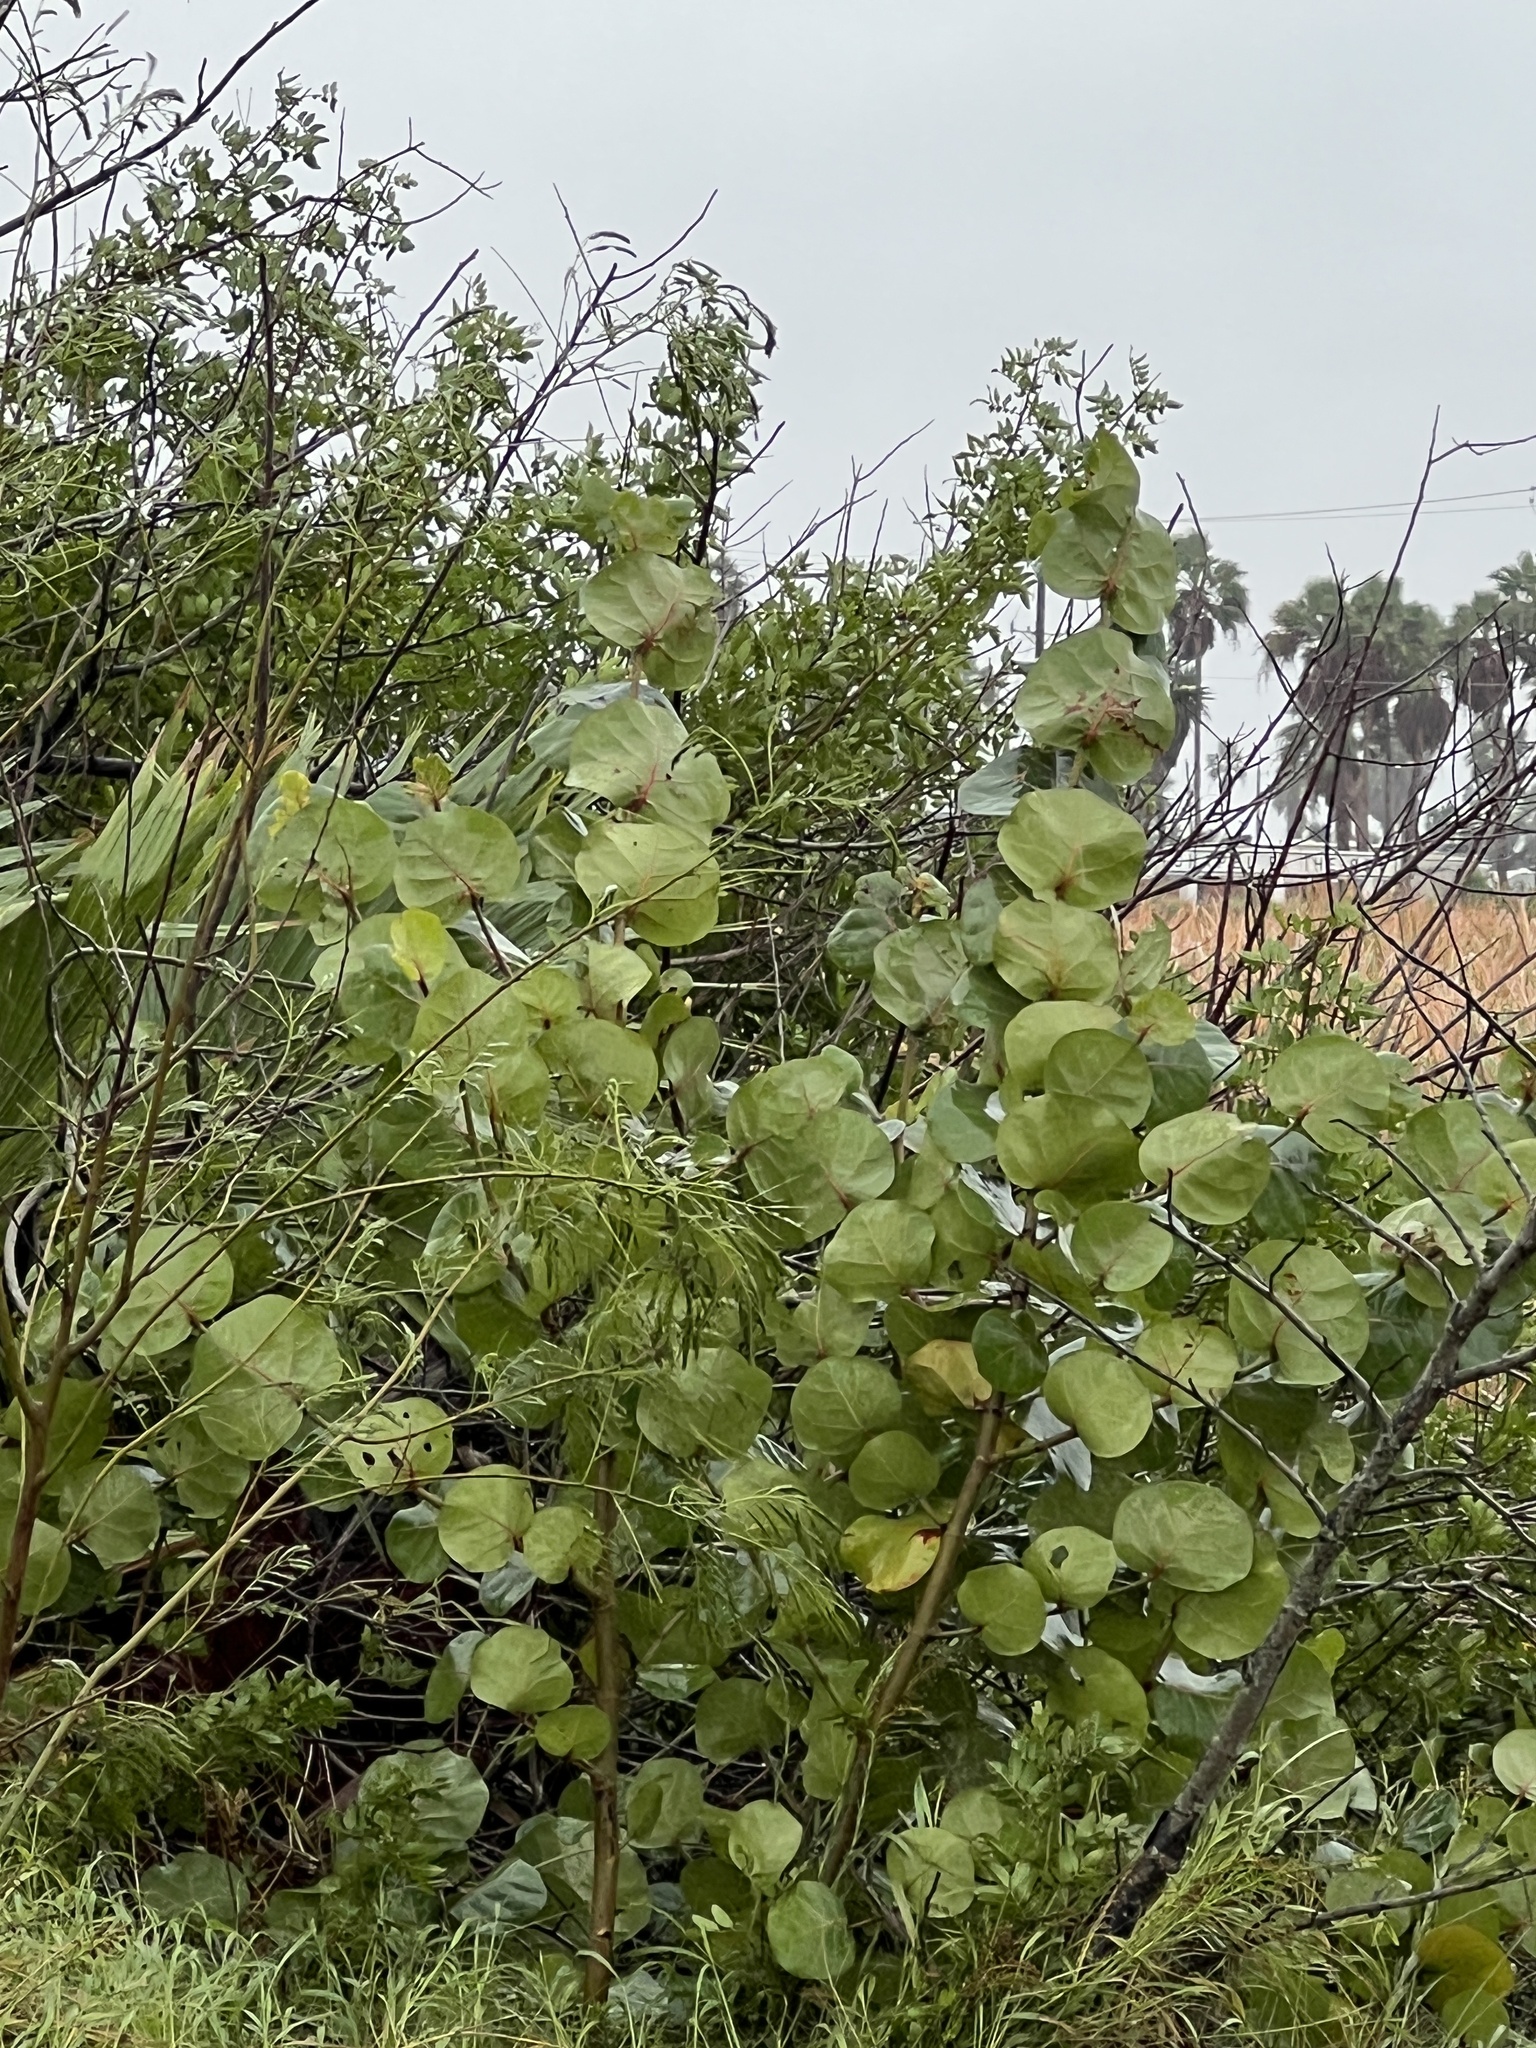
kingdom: Plantae
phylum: Tracheophyta
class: Magnoliopsida
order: Caryophyllales
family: Polygonaceae
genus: Coccoloba
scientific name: Coccoloba uvifera
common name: Seagrape
